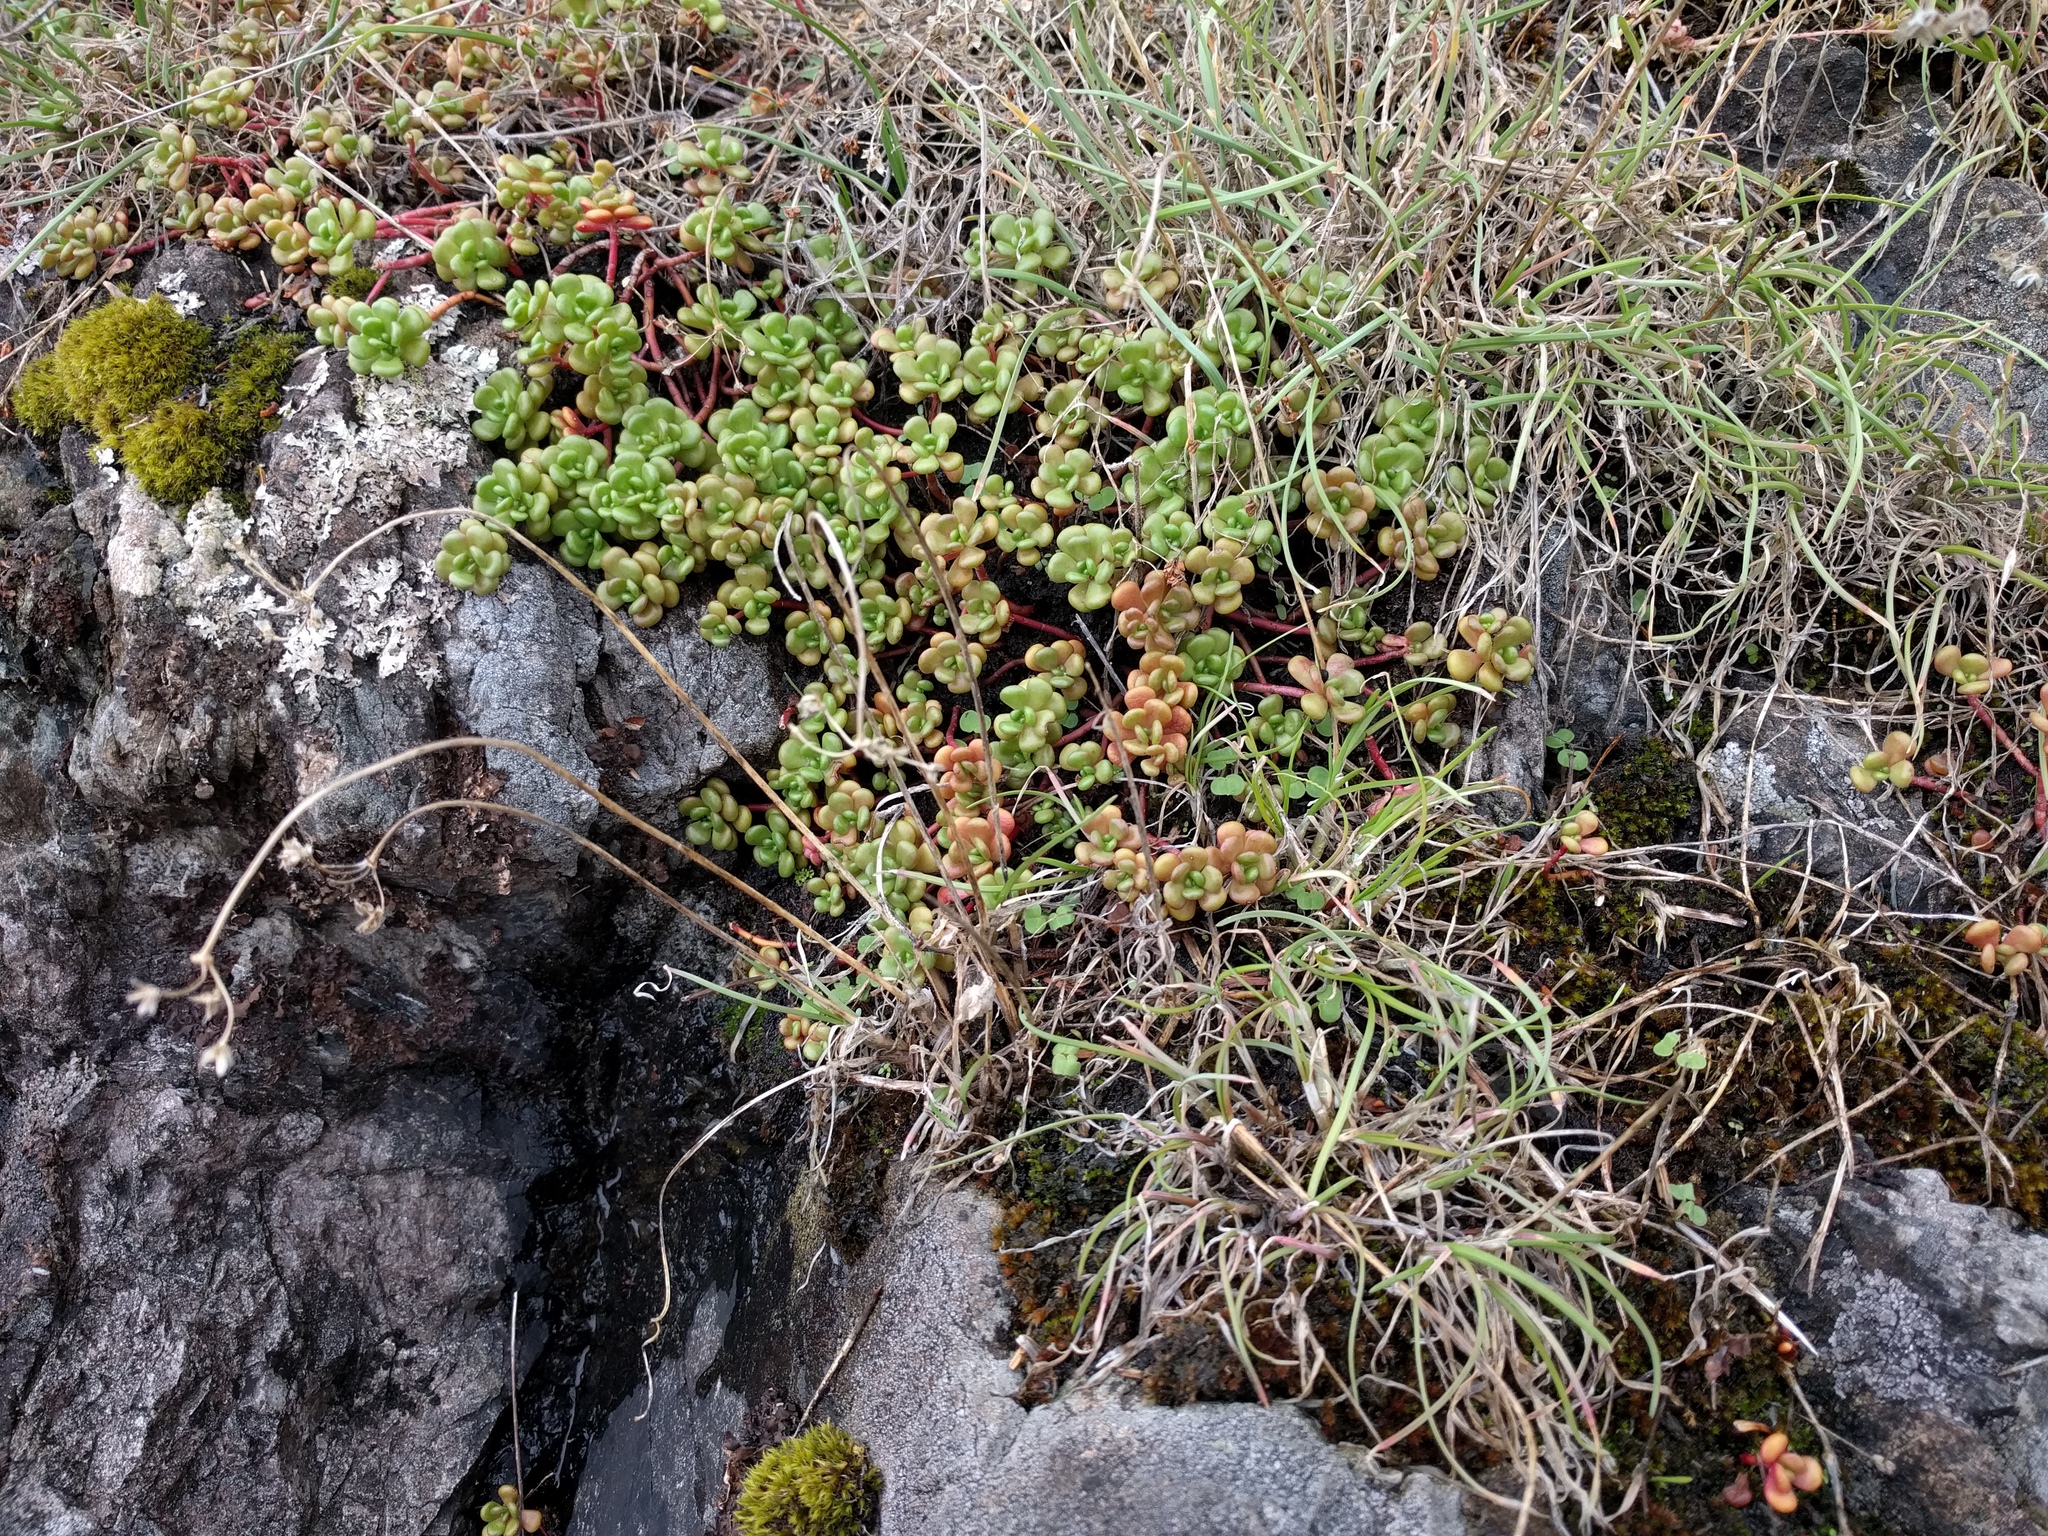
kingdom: Plantae
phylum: Tracheophyta
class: Magnoliopsida
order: Saxifragales
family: Crassulaceae
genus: Sedum
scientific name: Sedum oreganum
